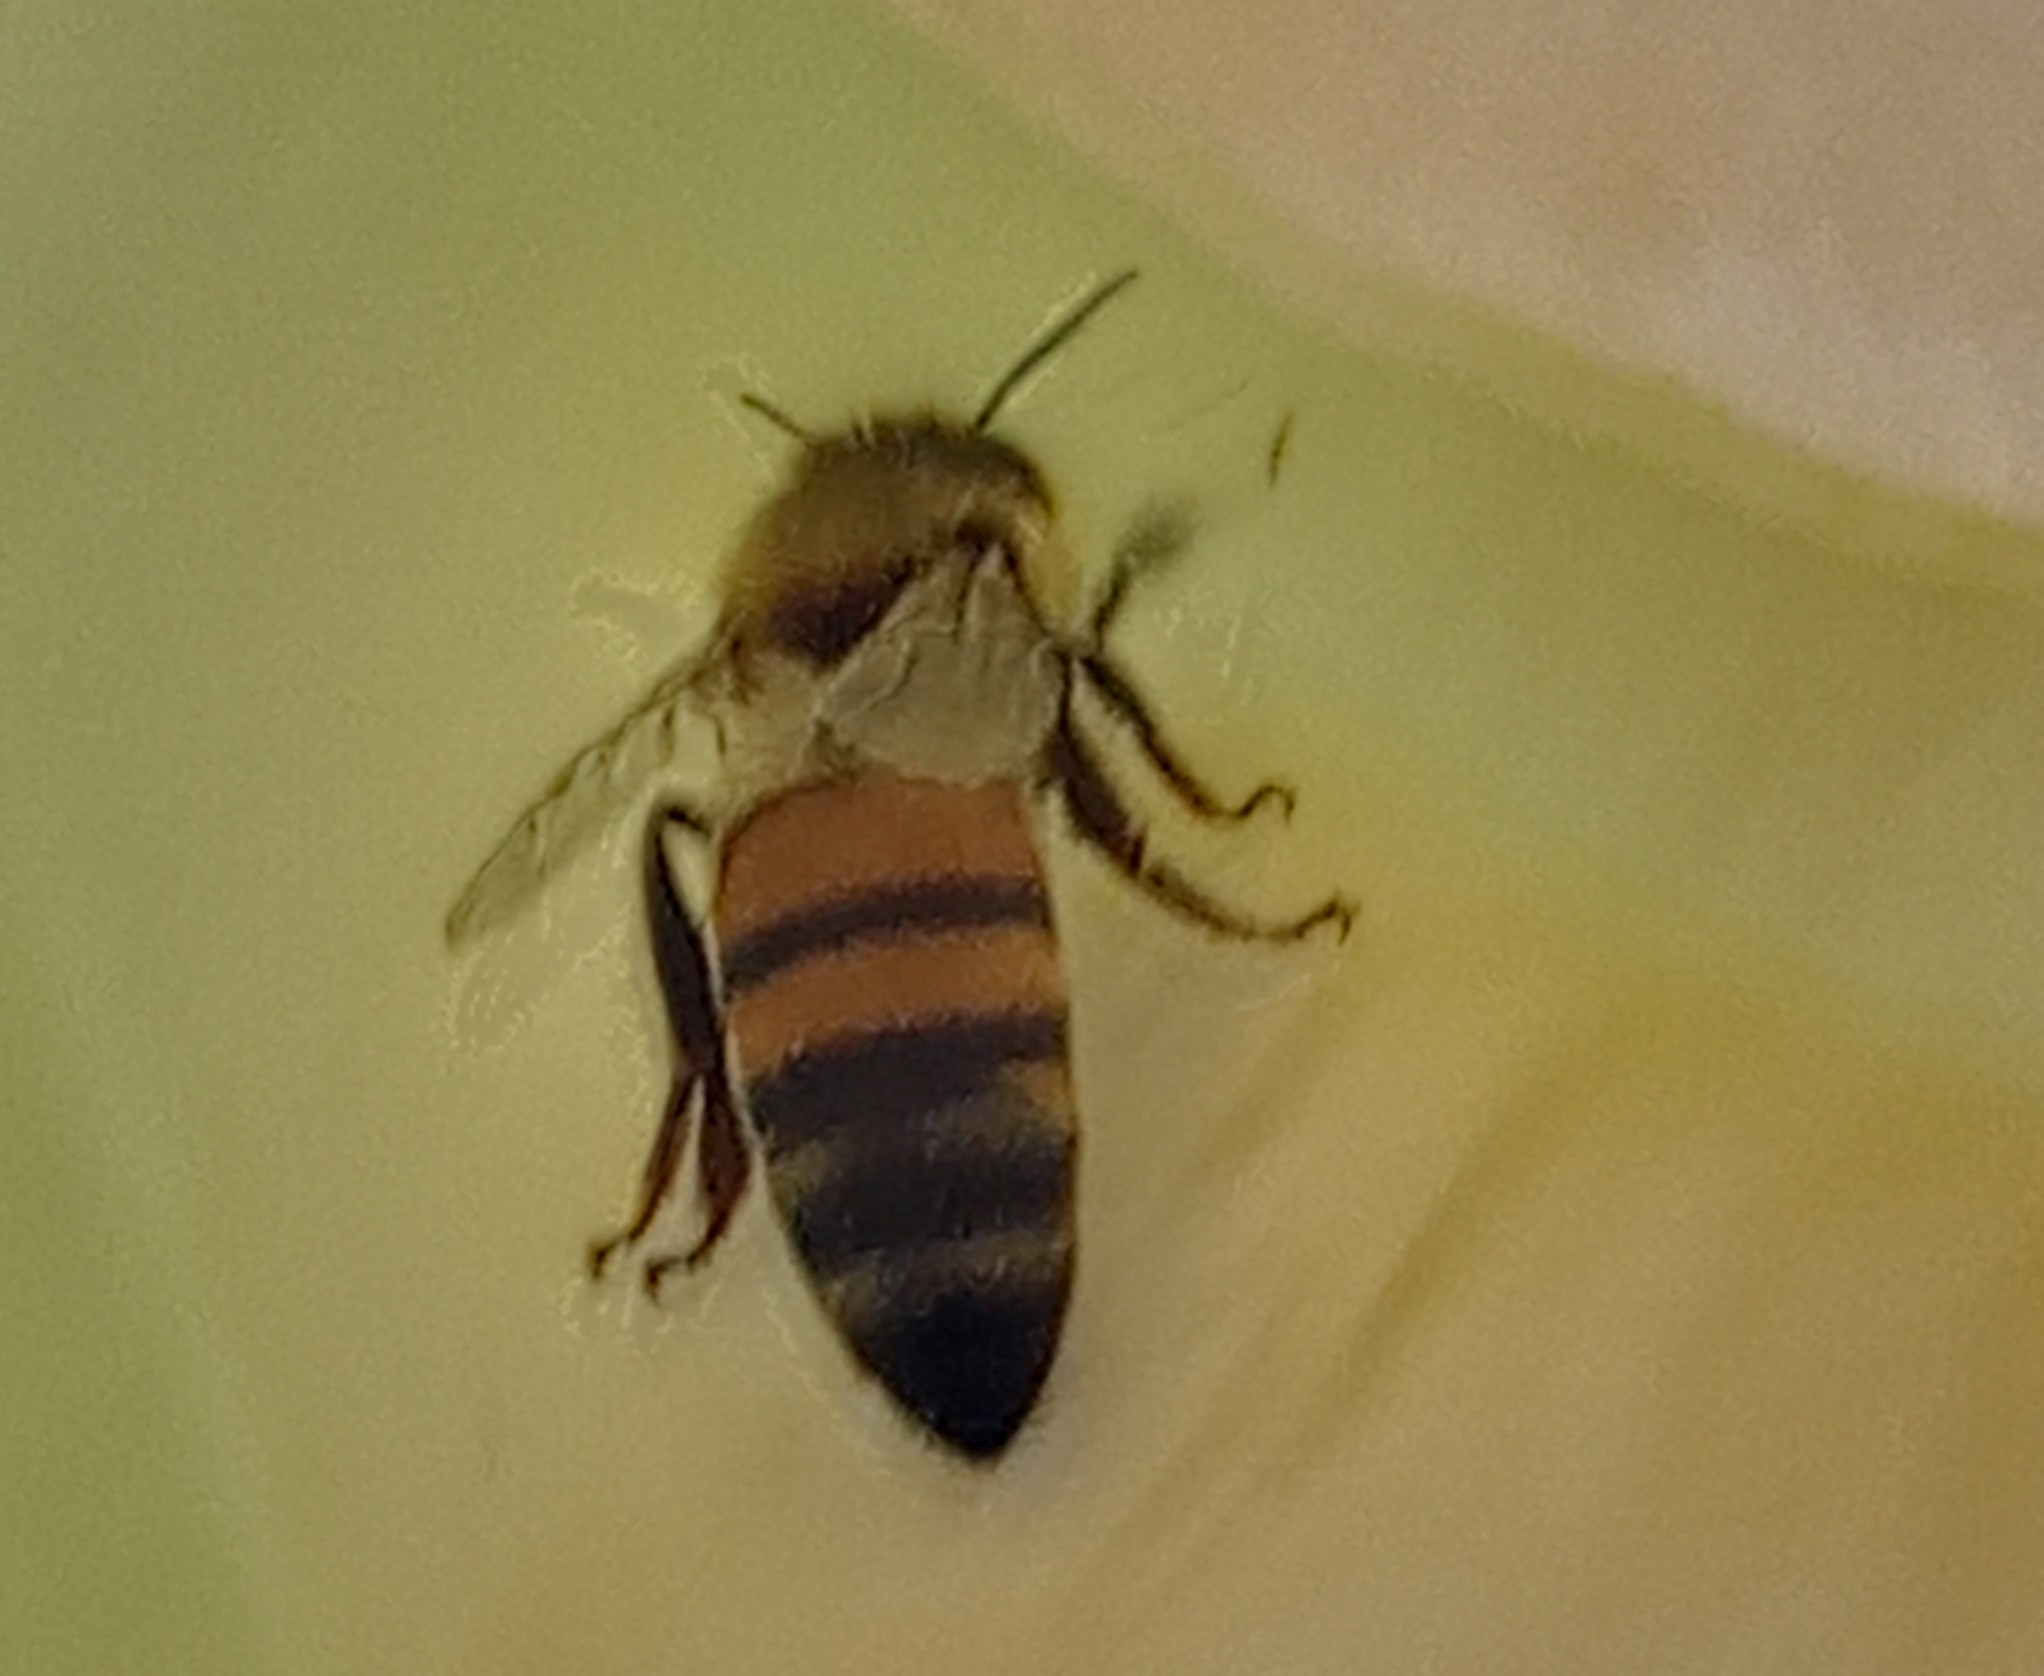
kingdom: Animalia
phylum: Arthropoda
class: Insecta
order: Hymenoptera
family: Apidae
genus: Apis
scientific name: Apis mellifera
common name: Honey bee
